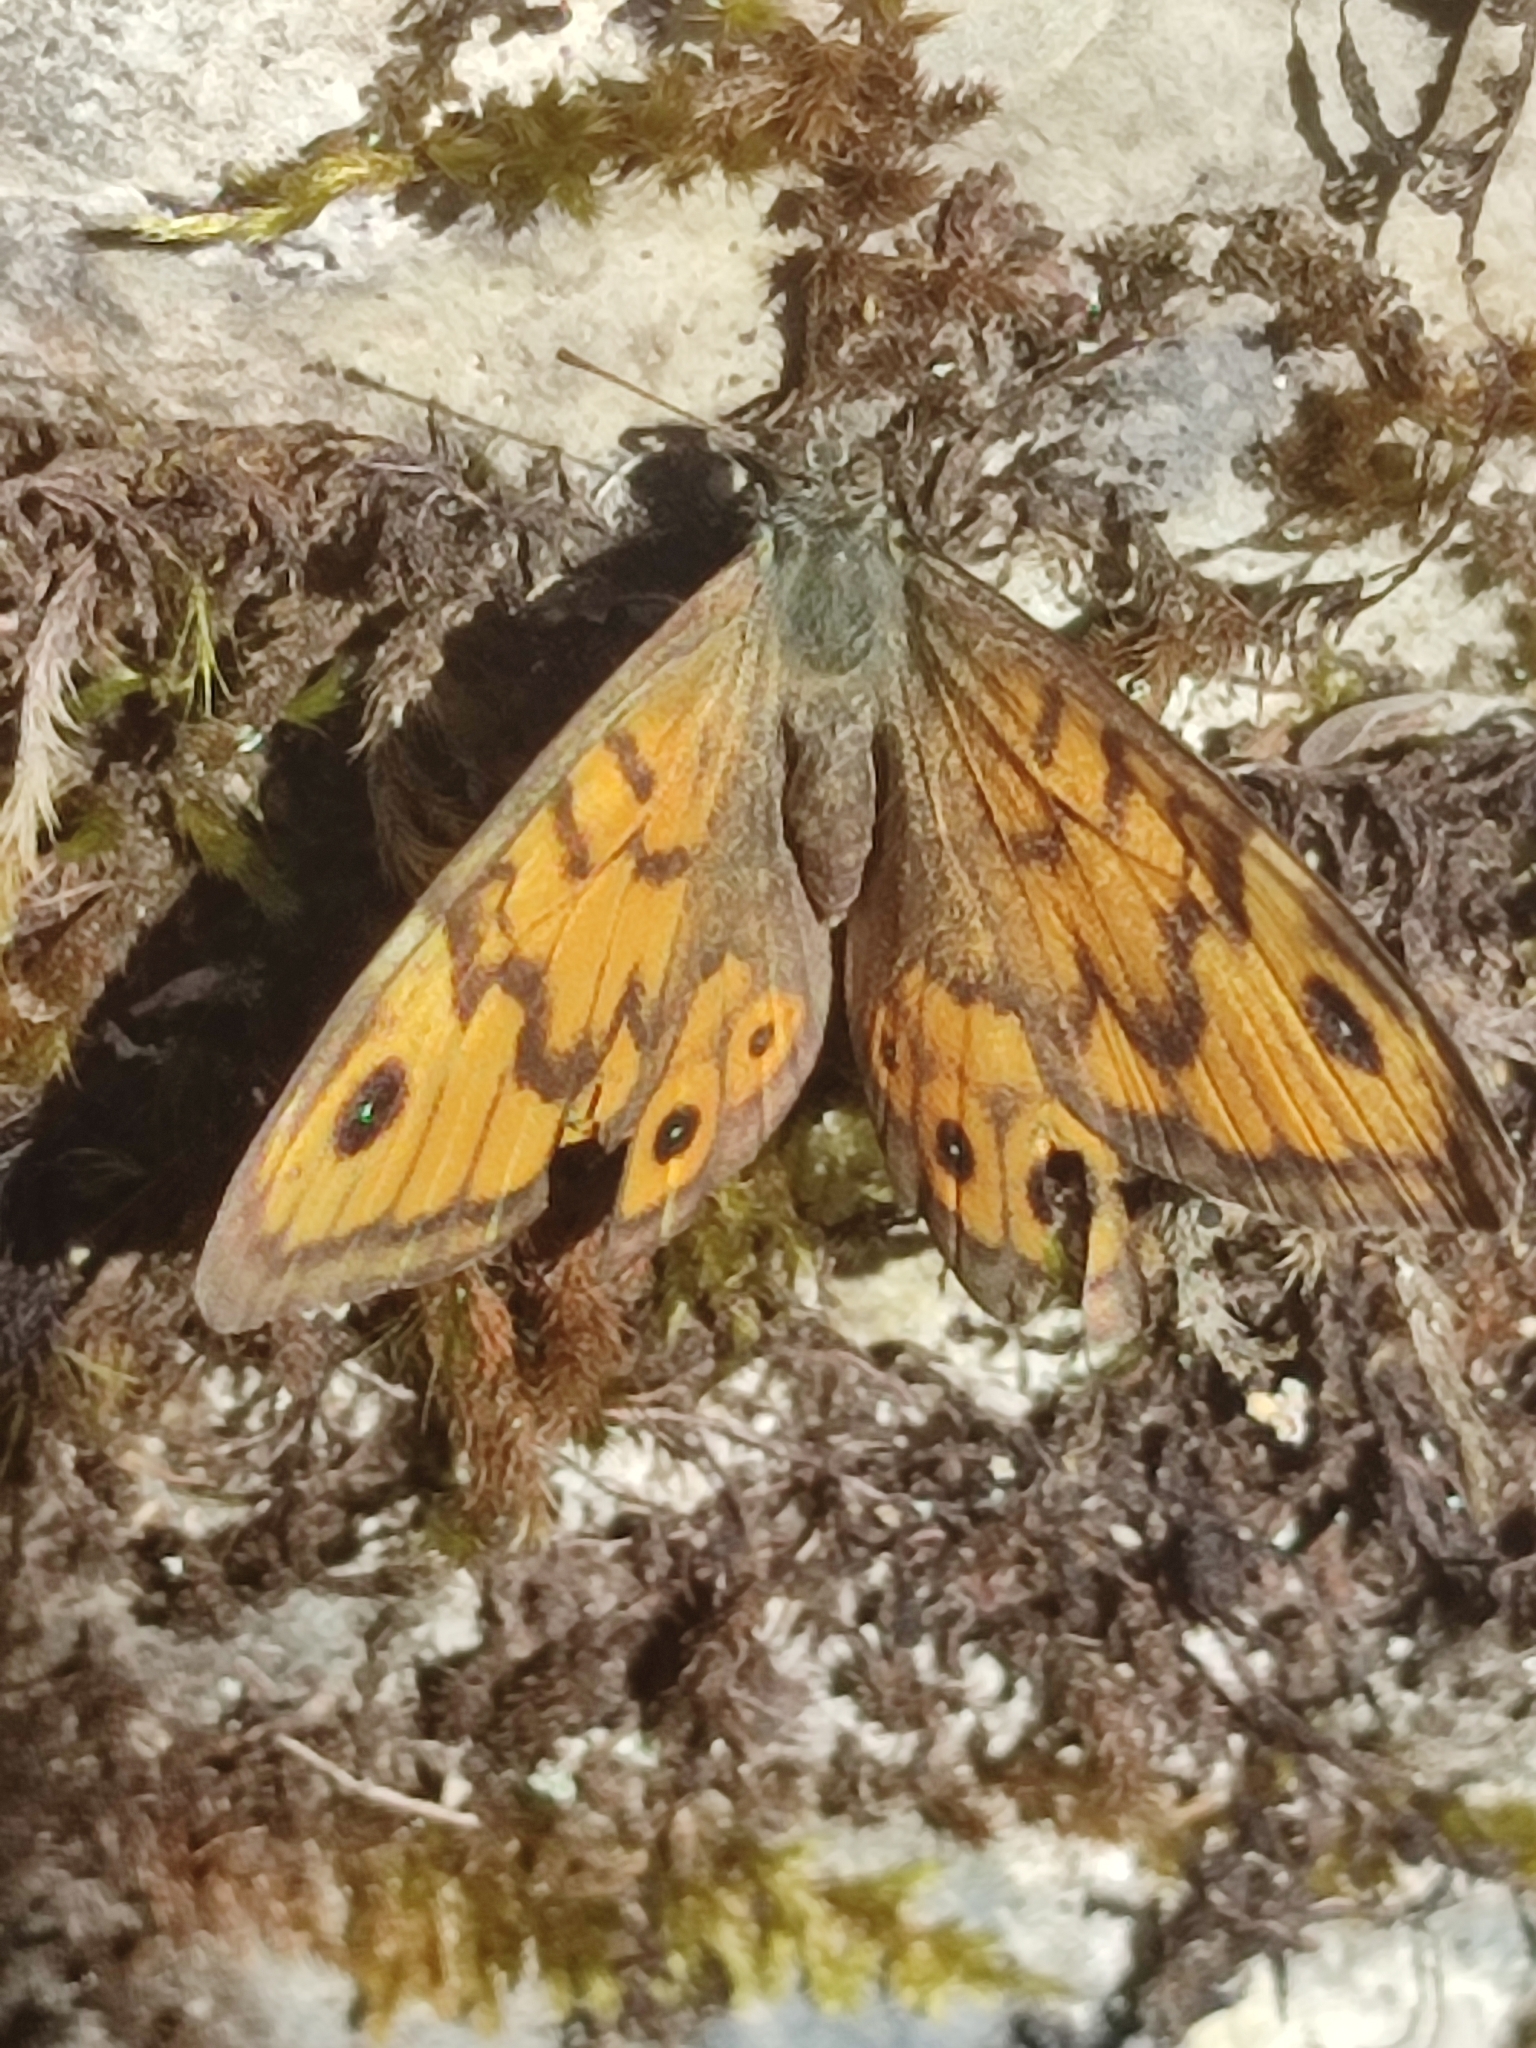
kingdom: Animalia
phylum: Arthropoda
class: Insecta
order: Lepidoptera
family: Nymphalidae
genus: Pararge
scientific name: Pararge Lasiommata megera
